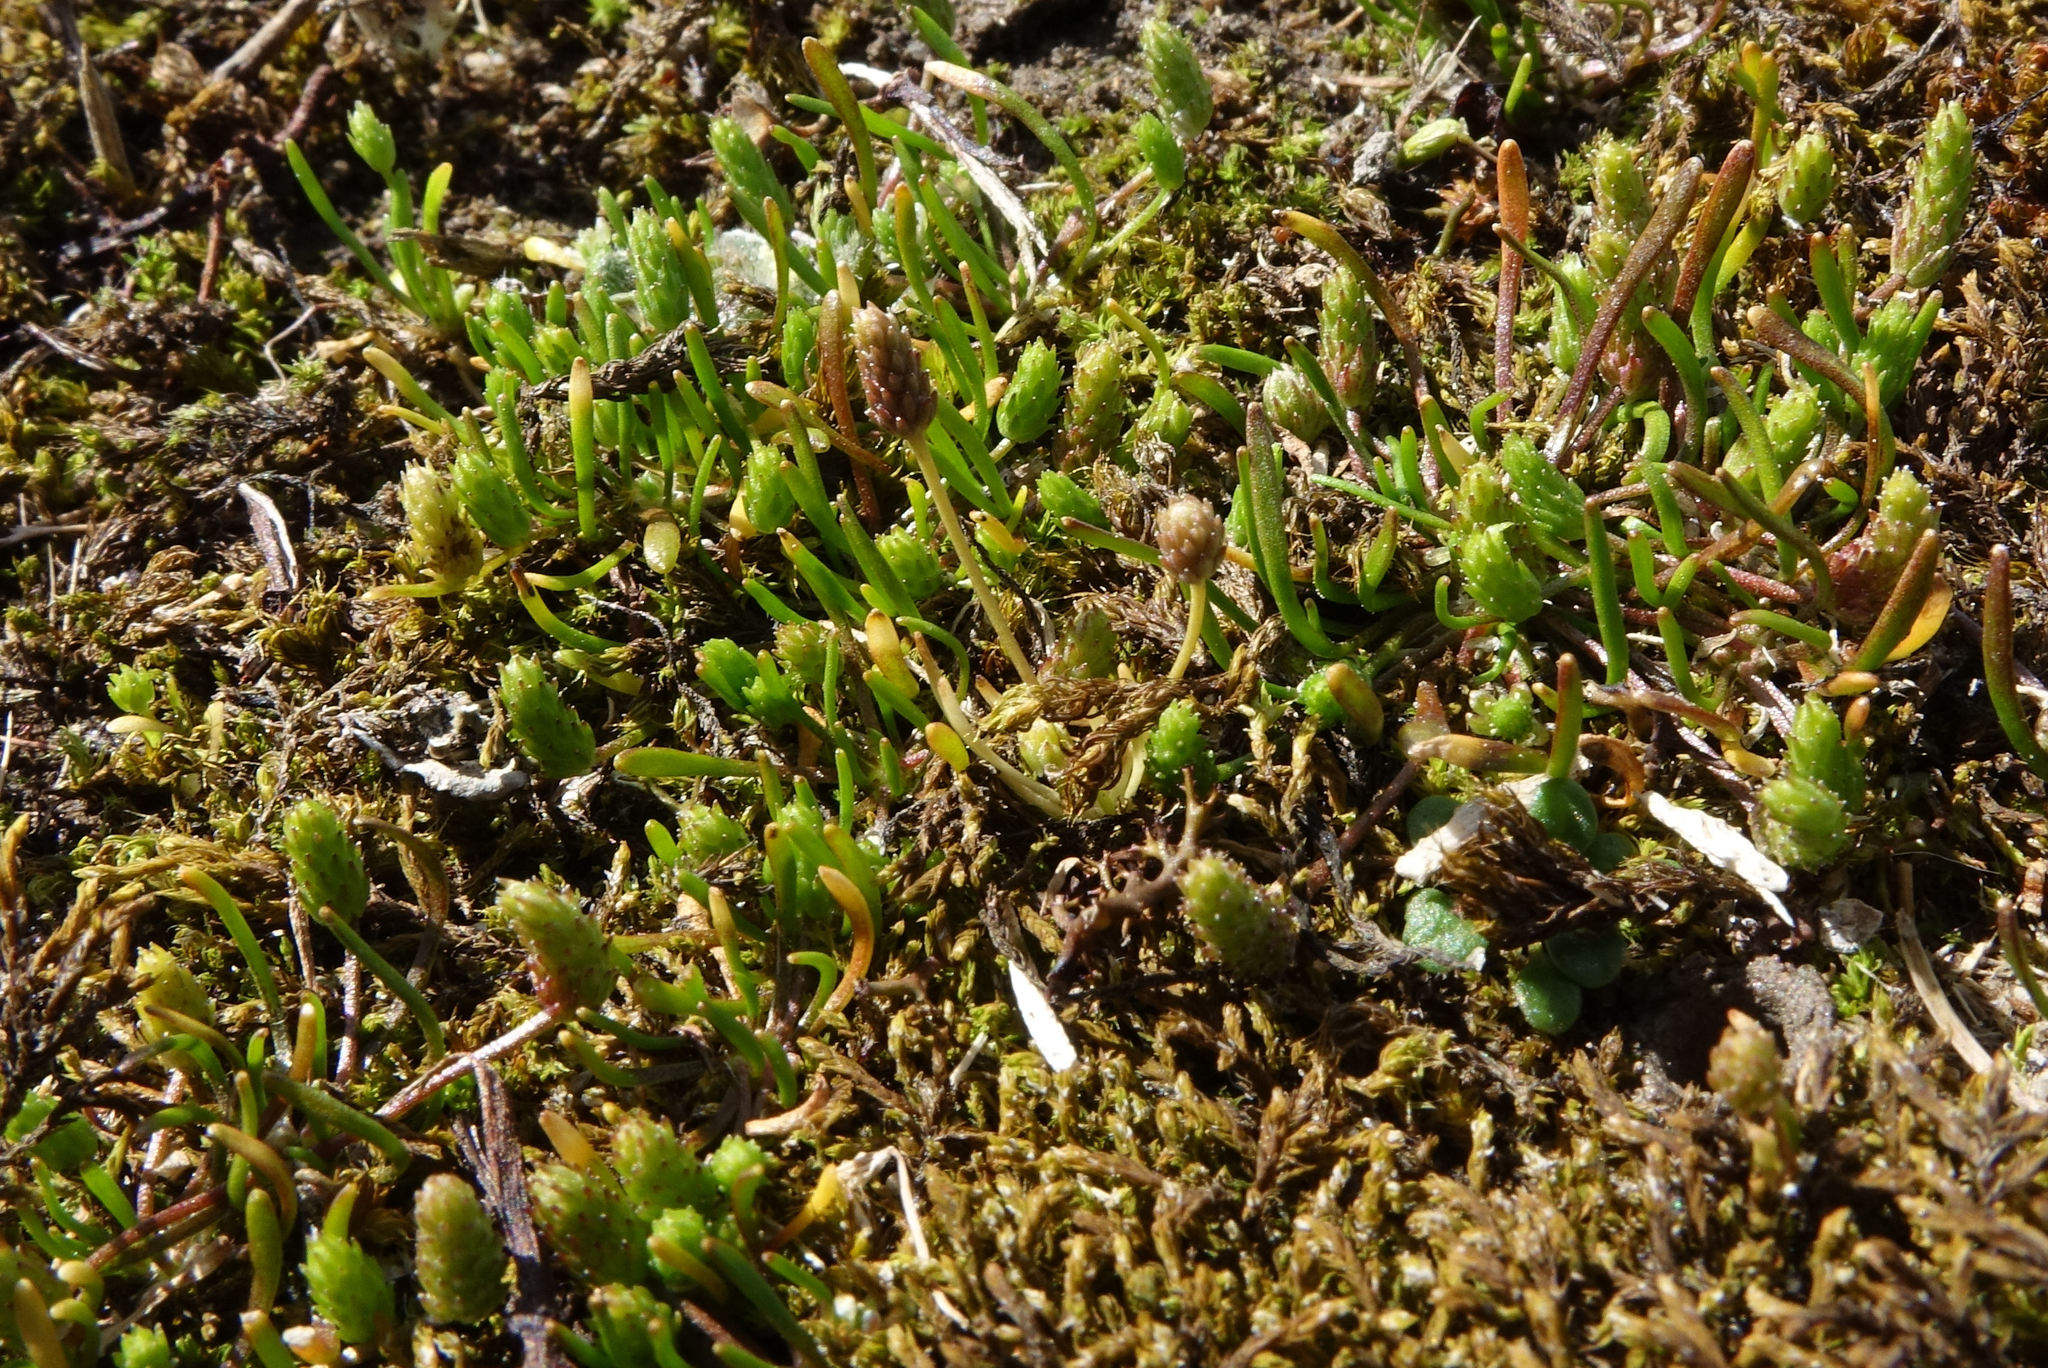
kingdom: Plantae
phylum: Tracheophyta
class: Magnoliopsida
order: Ranunculales
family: Ranunculaceae
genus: Myosurus
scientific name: Myosurus minimus
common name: Mousetail
